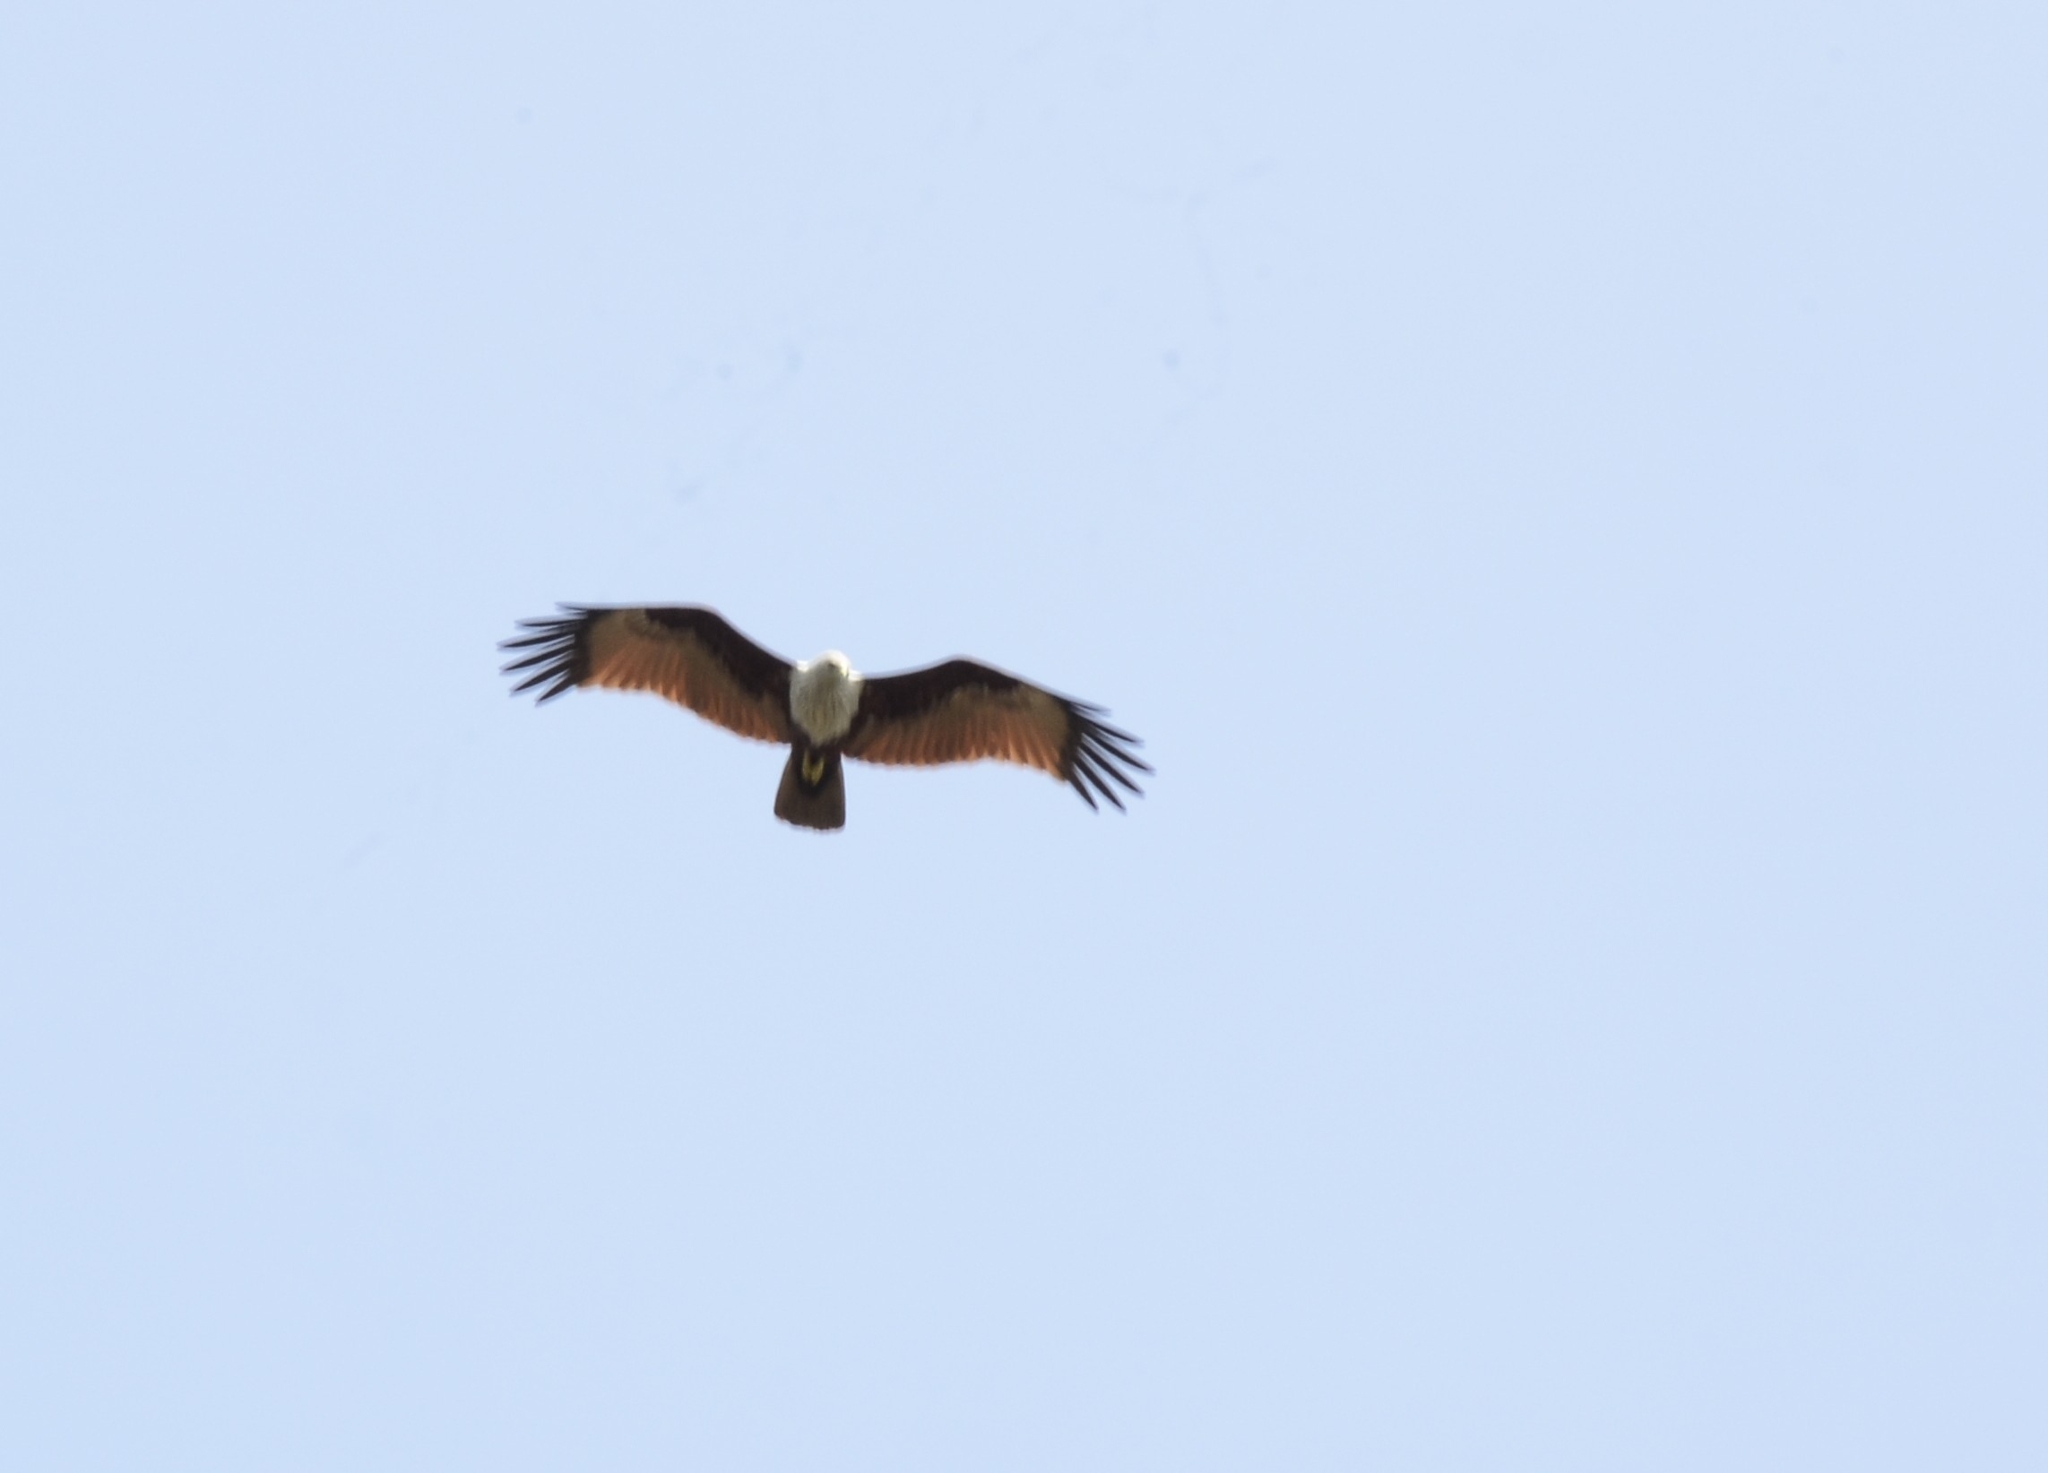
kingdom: Animalia
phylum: Chordata
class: Aves
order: Accipitriformes
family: Accipitridae
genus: Haliastur
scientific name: Haliastur indus
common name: Brahminy kite
